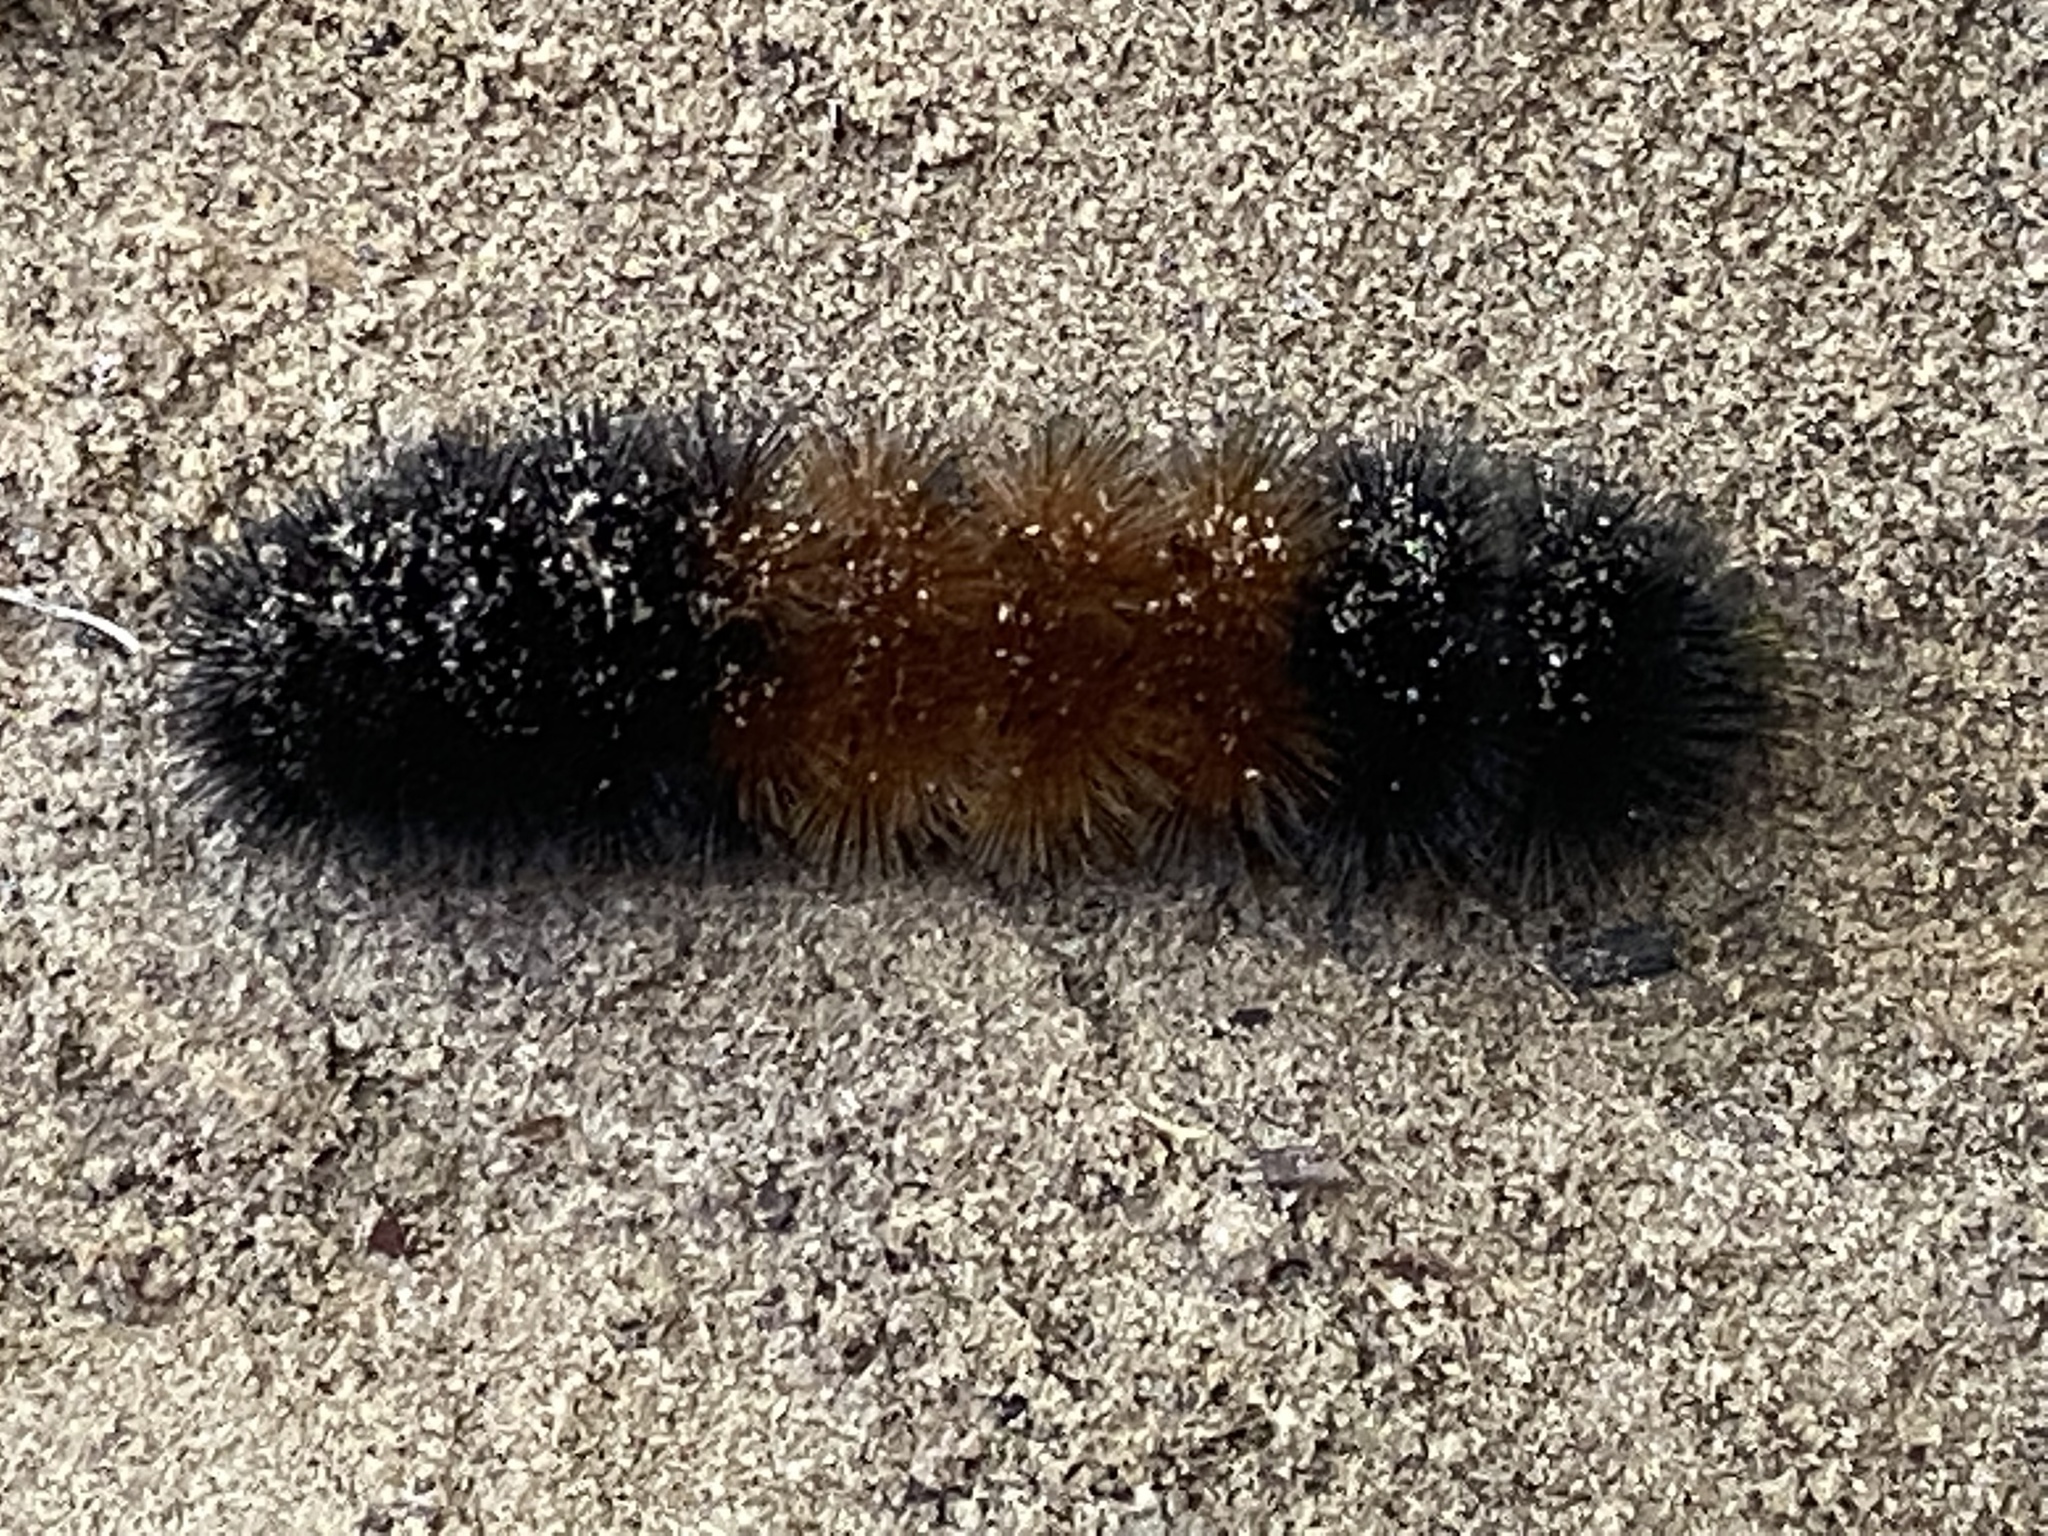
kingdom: Animalia
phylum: Arthropoda
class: Insecta
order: Lepidoptera
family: Erebidae
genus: Pyrrharctia
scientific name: Pyrrharctia isabella
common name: Isabella tiger moth
